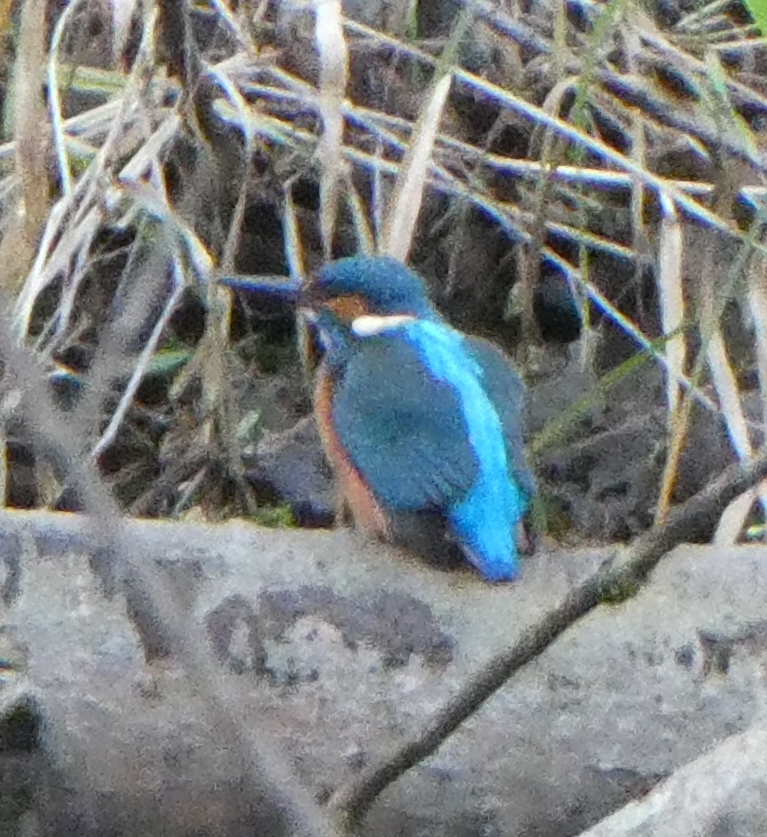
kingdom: Animalia
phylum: Chordata
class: Aves
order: Coraciiformes
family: Alcedinidae
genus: Alcedo
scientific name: Alcedo atthis
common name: Common kingfisher
